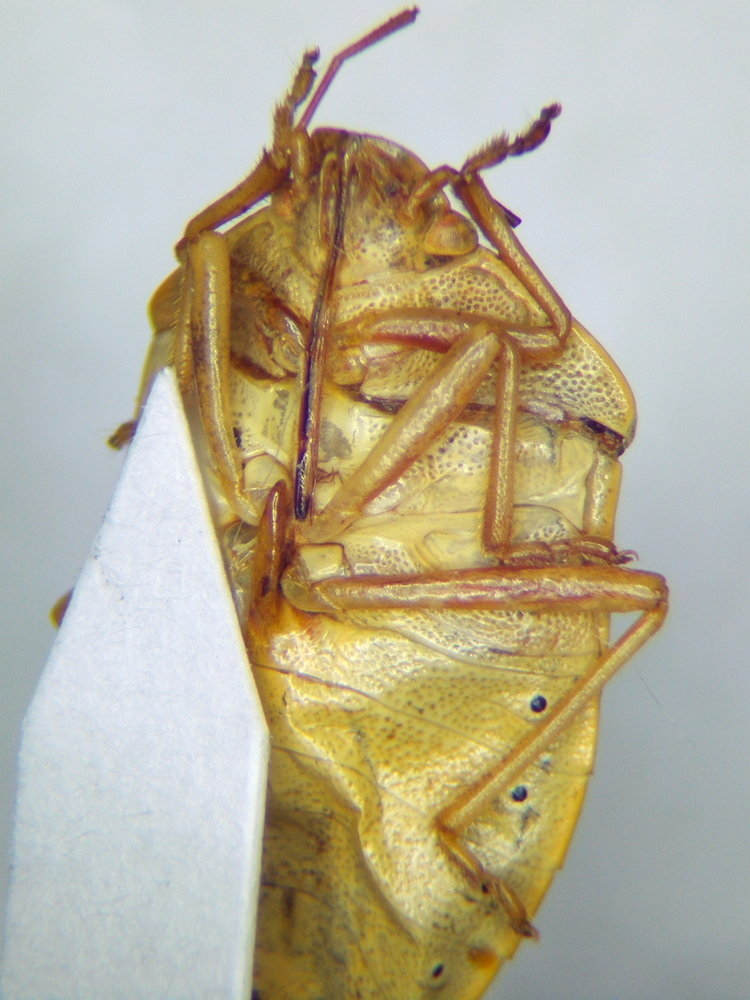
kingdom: Animalia
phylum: Arthropoda
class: Insecta
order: Hemiptera
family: Pentatomidae
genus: Piezodorus
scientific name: Piezodorus lituratus
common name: Stink bug
